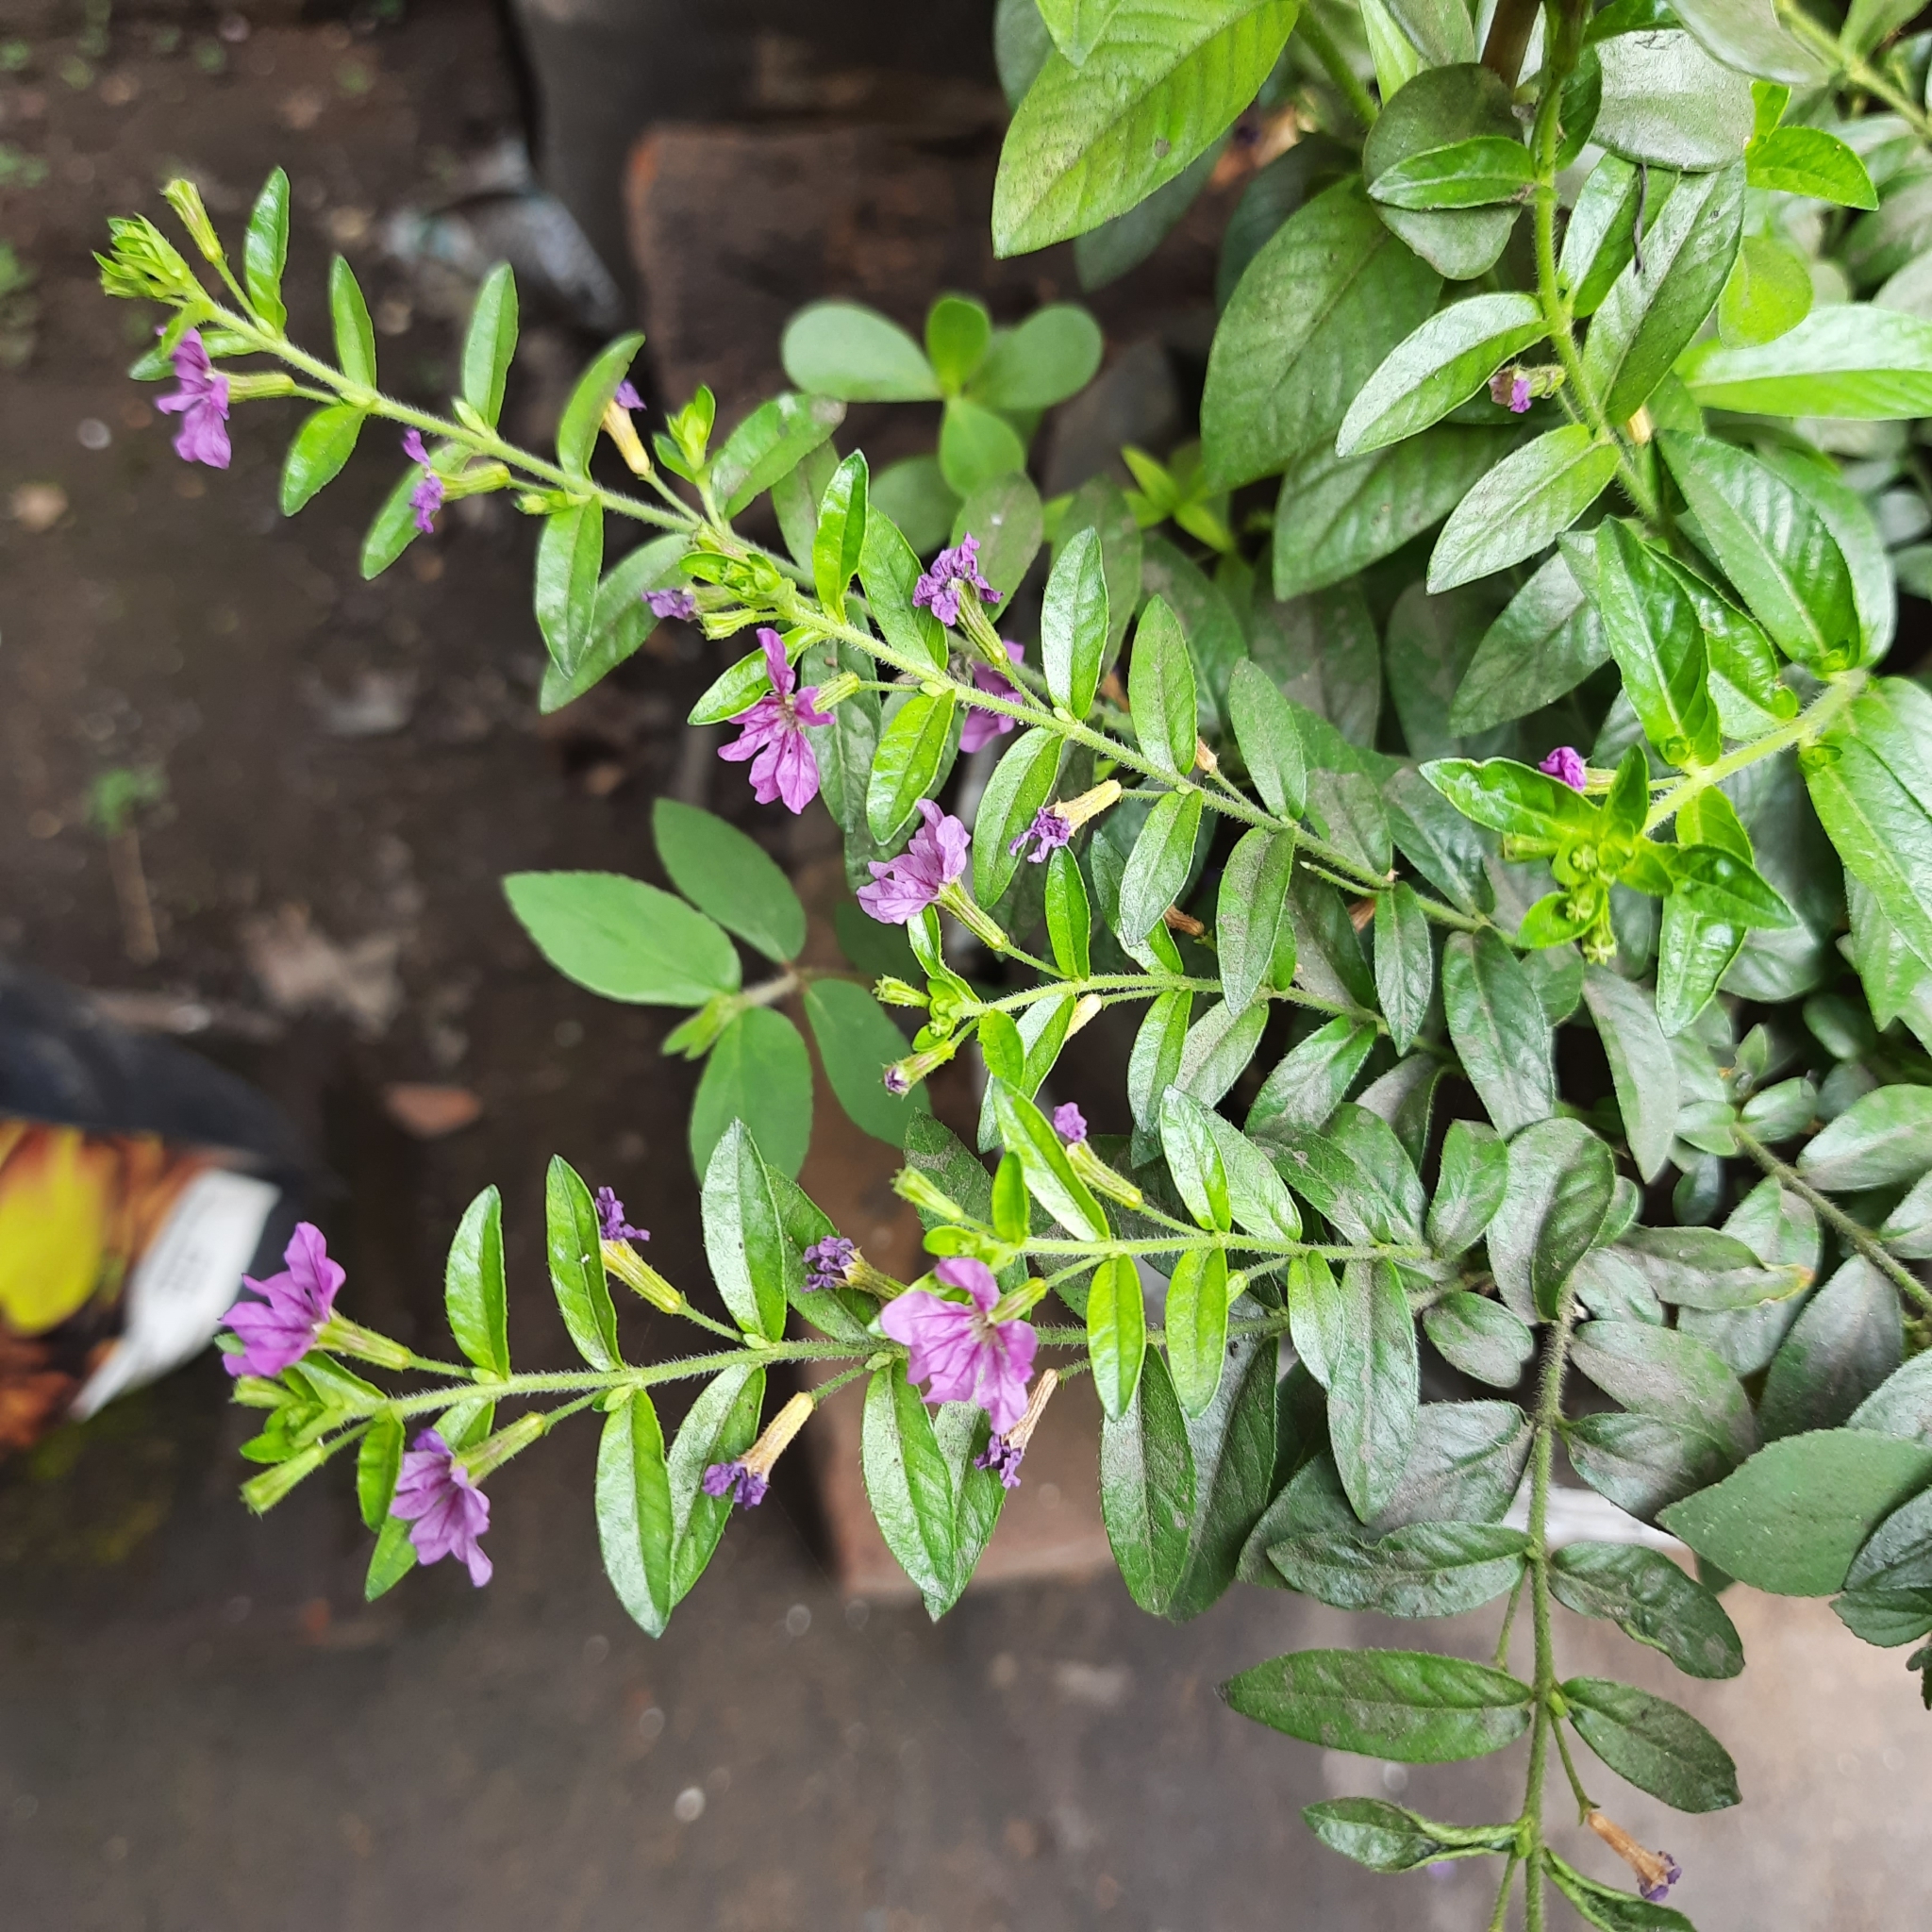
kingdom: Plantae
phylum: Tracheophyta
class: Magnoliopsida
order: Myrtales
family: Lythraceae
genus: Cuphea
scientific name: Cuphea hyssopifolia
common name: False heather
